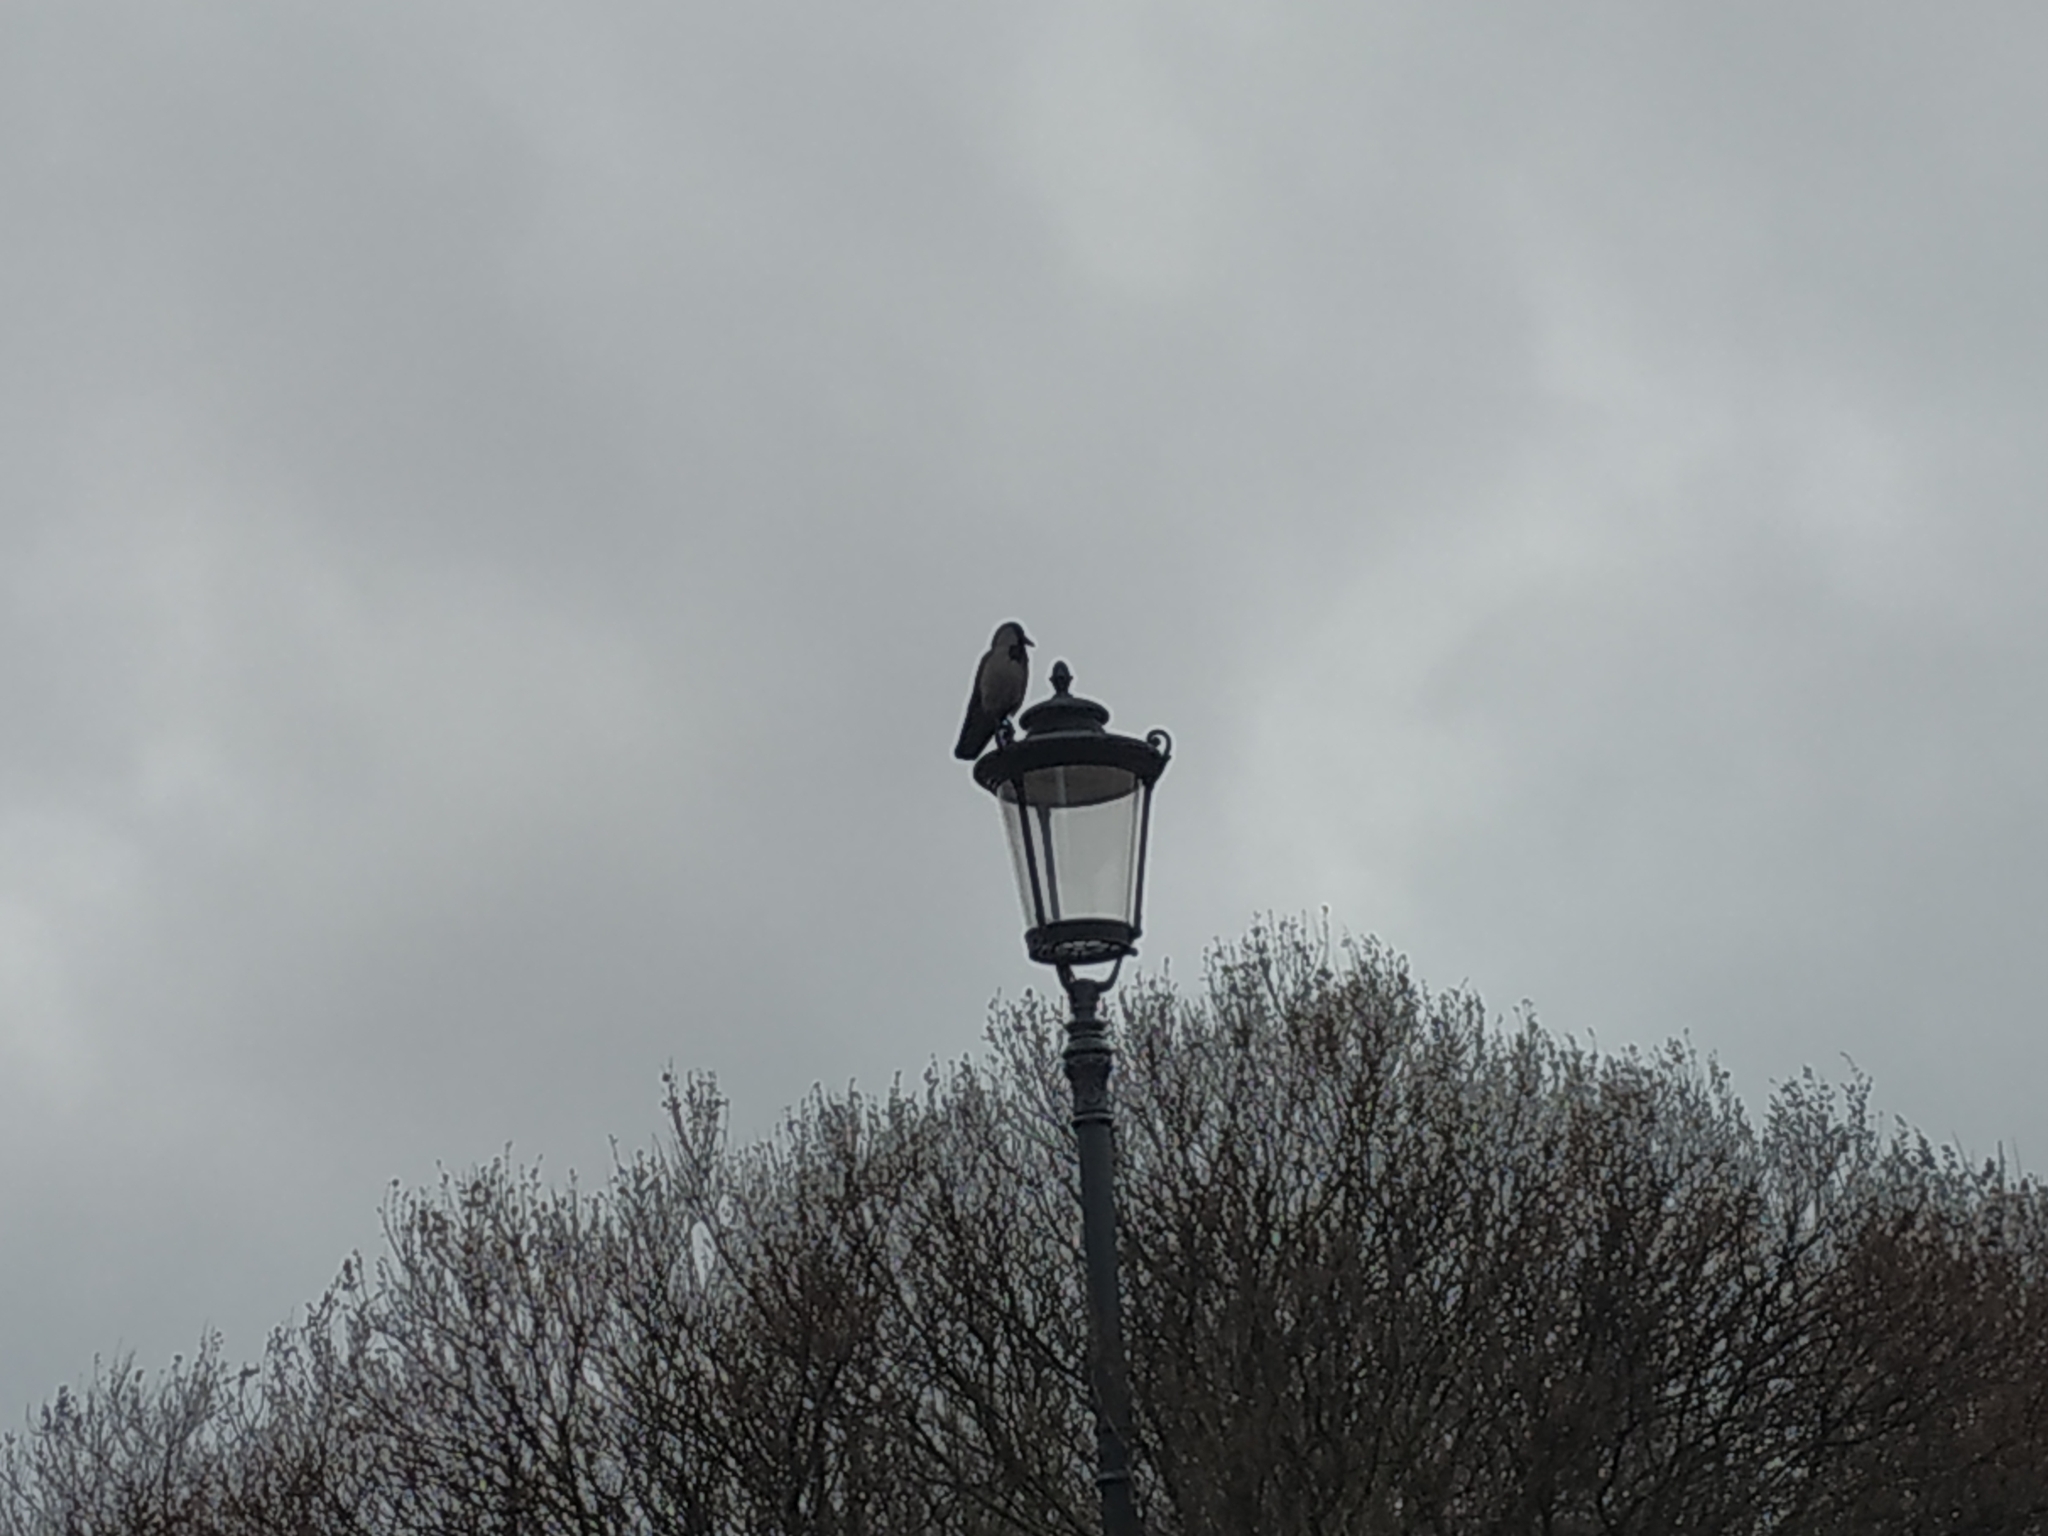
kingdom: Animalia
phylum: Chordata
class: Aves
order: Passeriformes
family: Corvidae
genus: Corvus
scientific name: Corvus cornix
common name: Hooded crow
